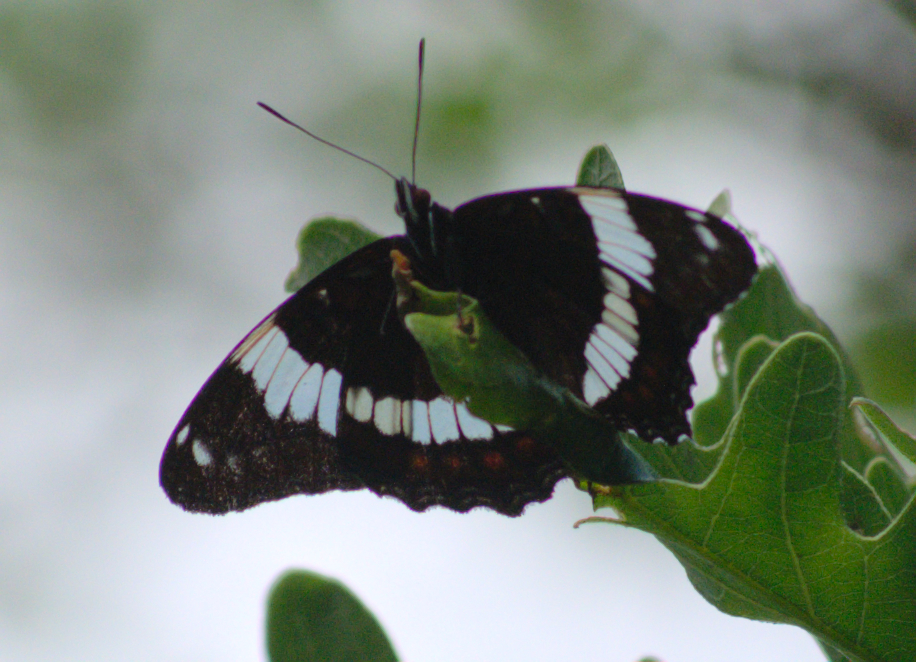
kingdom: Animalia
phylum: Arthropoda
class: Insecta
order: Lepidoptera
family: Nymphalidae
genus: Limenitis
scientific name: Limenitis arthemis
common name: Red-spotted admiral
